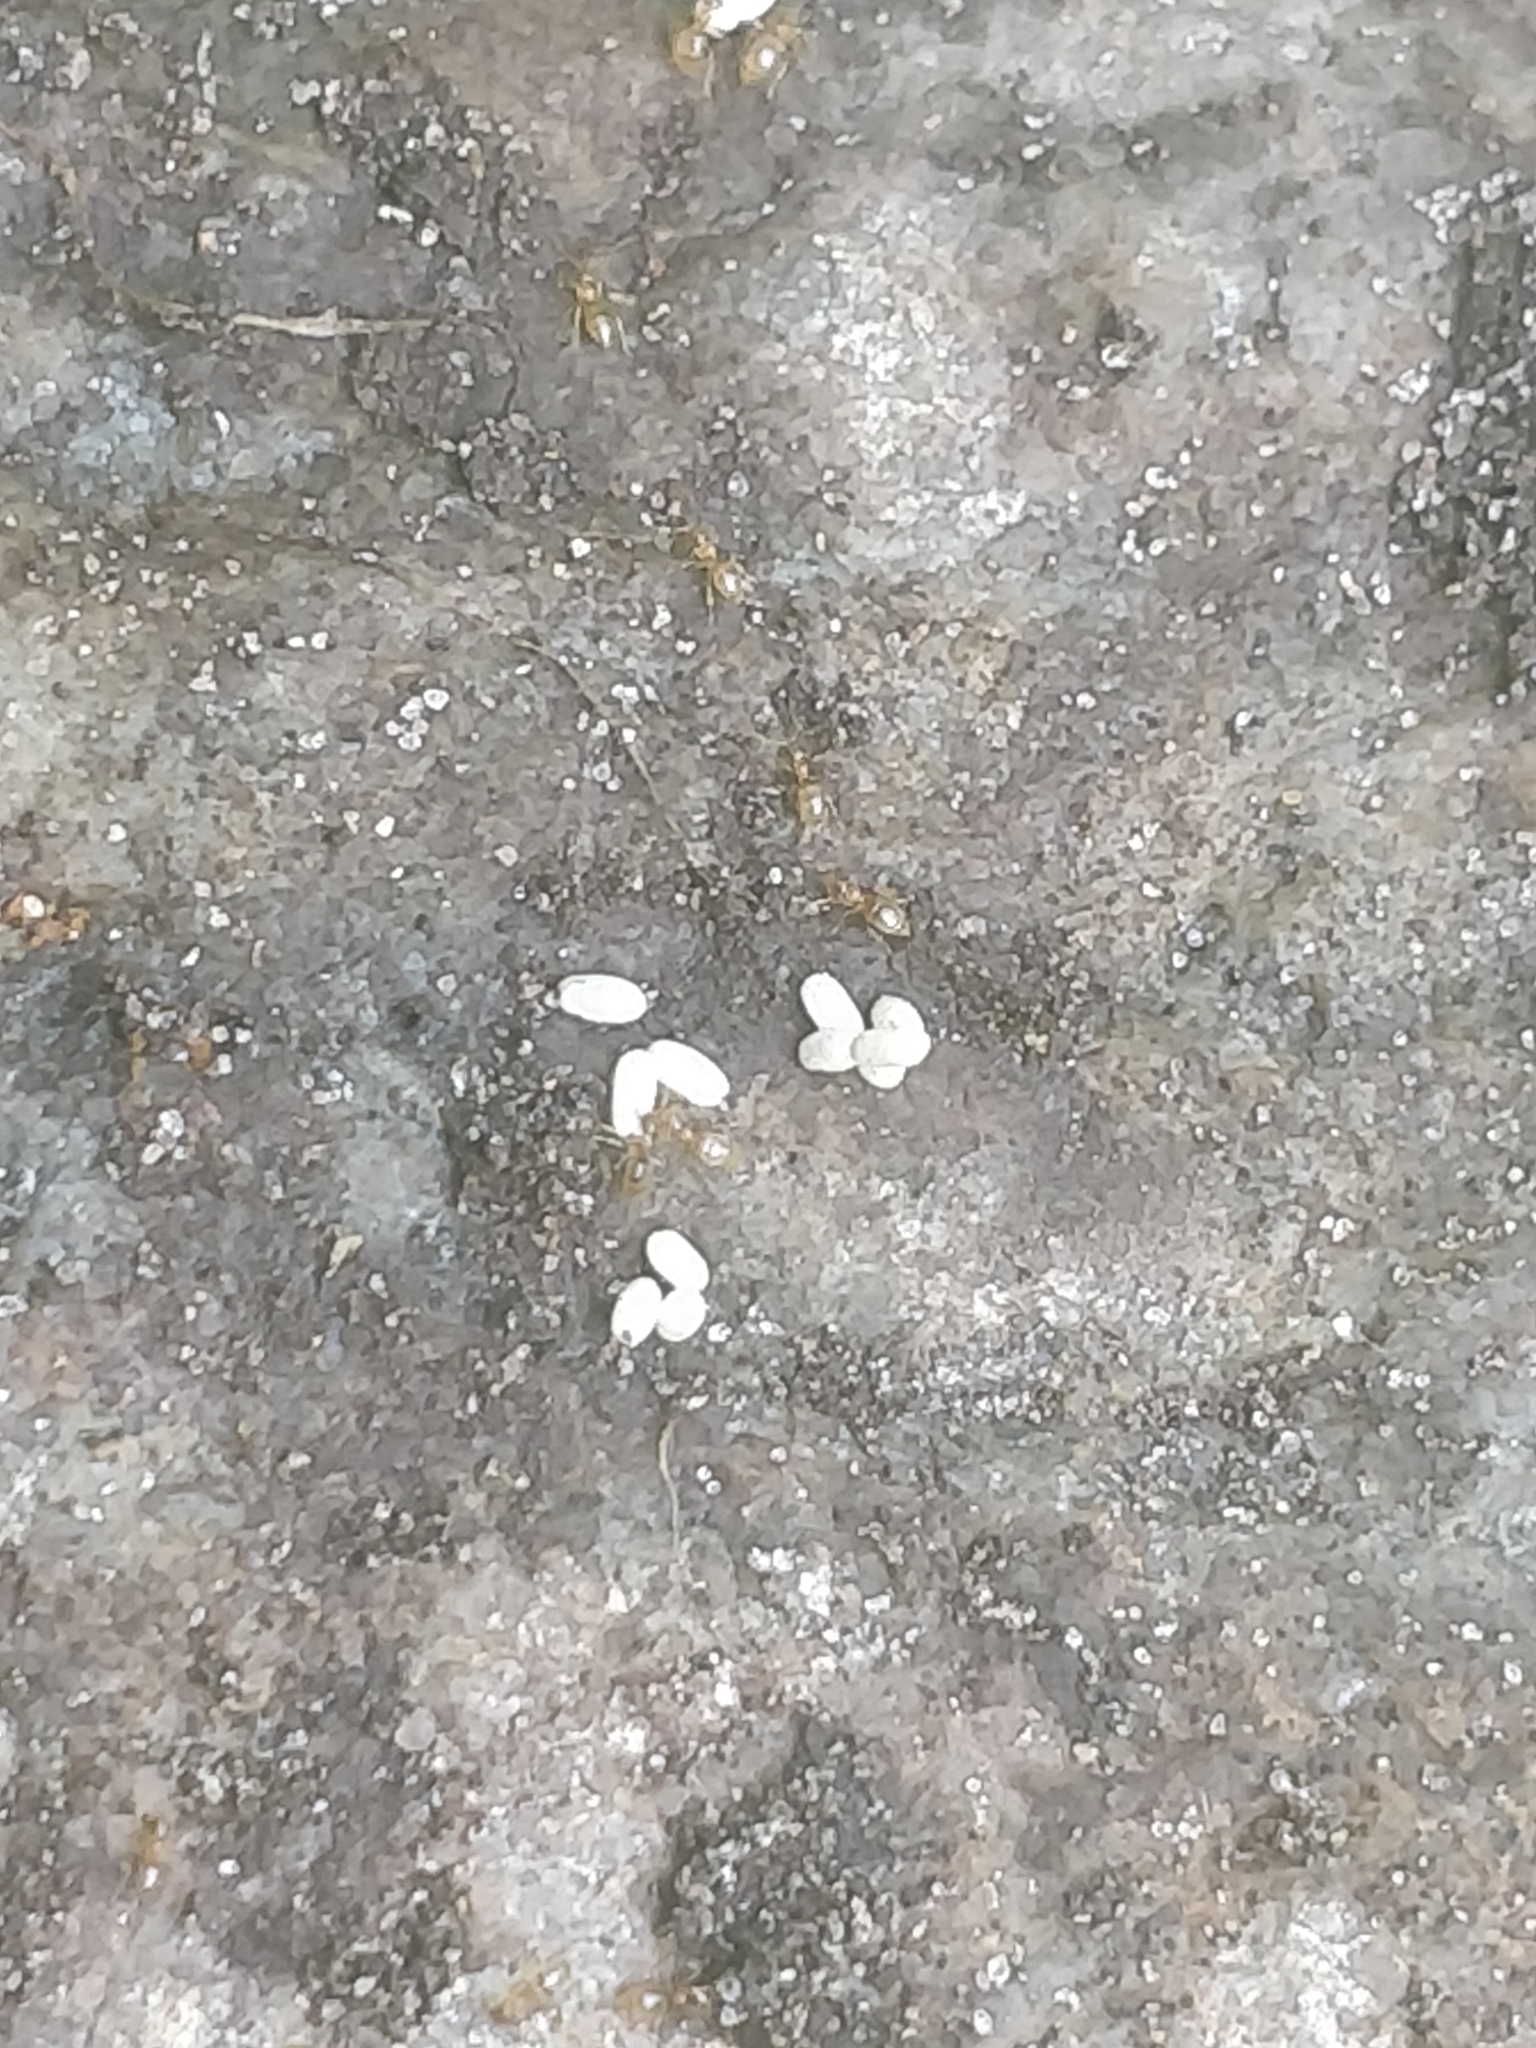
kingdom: Animalia
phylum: Arthropoda
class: Insecta
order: Hymenoptera
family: Formicidae
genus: Brachymyrmex
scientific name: Brachymyrmex depilis
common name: Hairless rover ant
